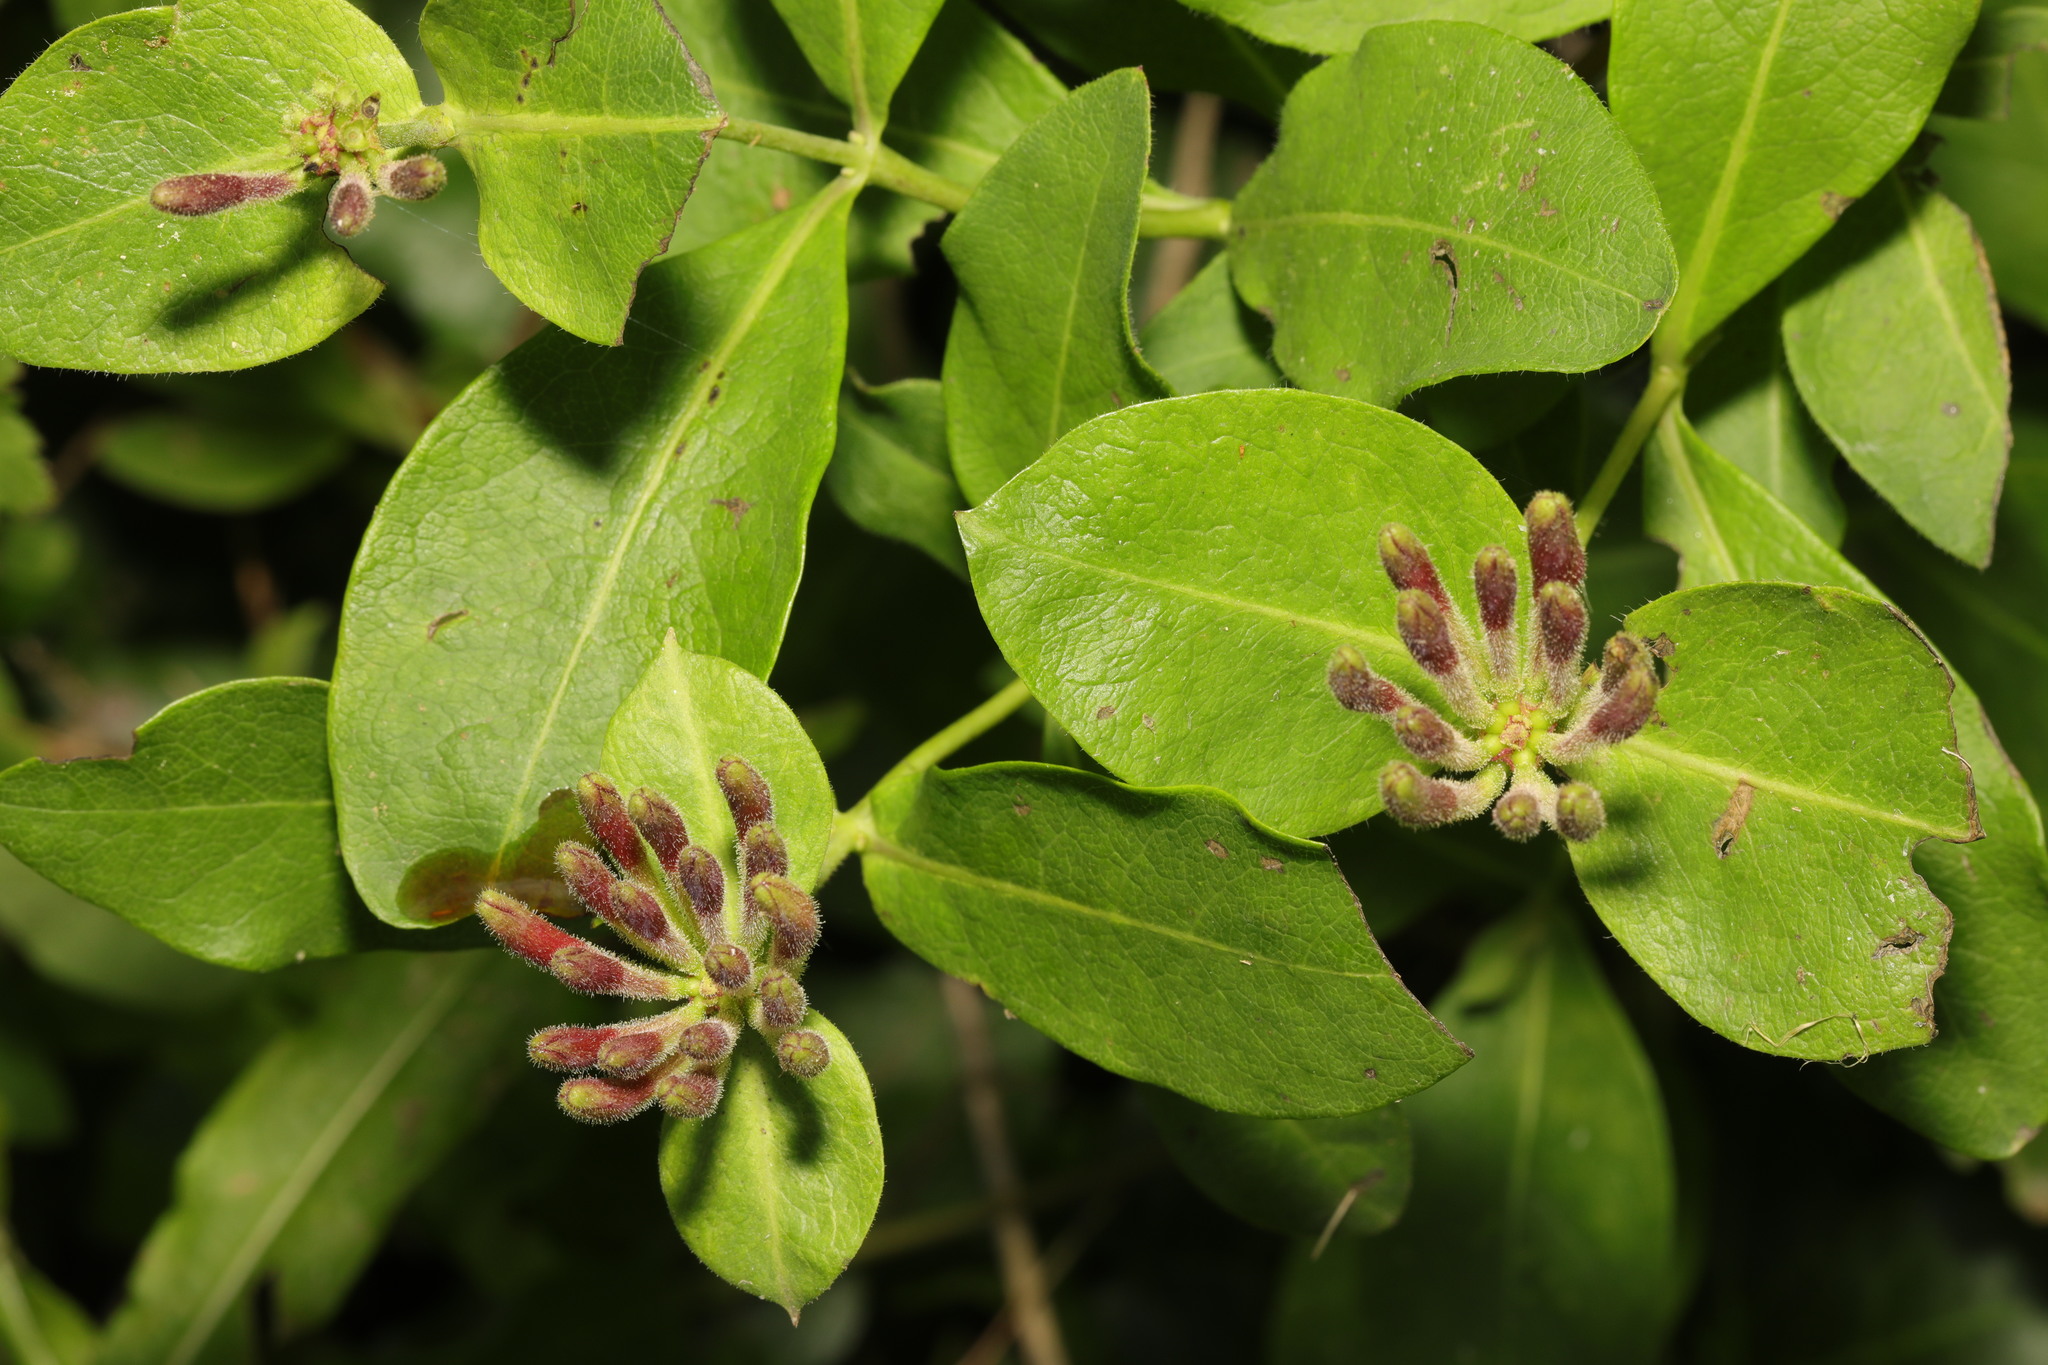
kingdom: Plantae
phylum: Tracheophyta
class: Magnoliopsida
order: Dipsacales
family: Caprifoliaceae
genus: Lonicera
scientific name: Lonicera periclymenum
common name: European honeysuckle
